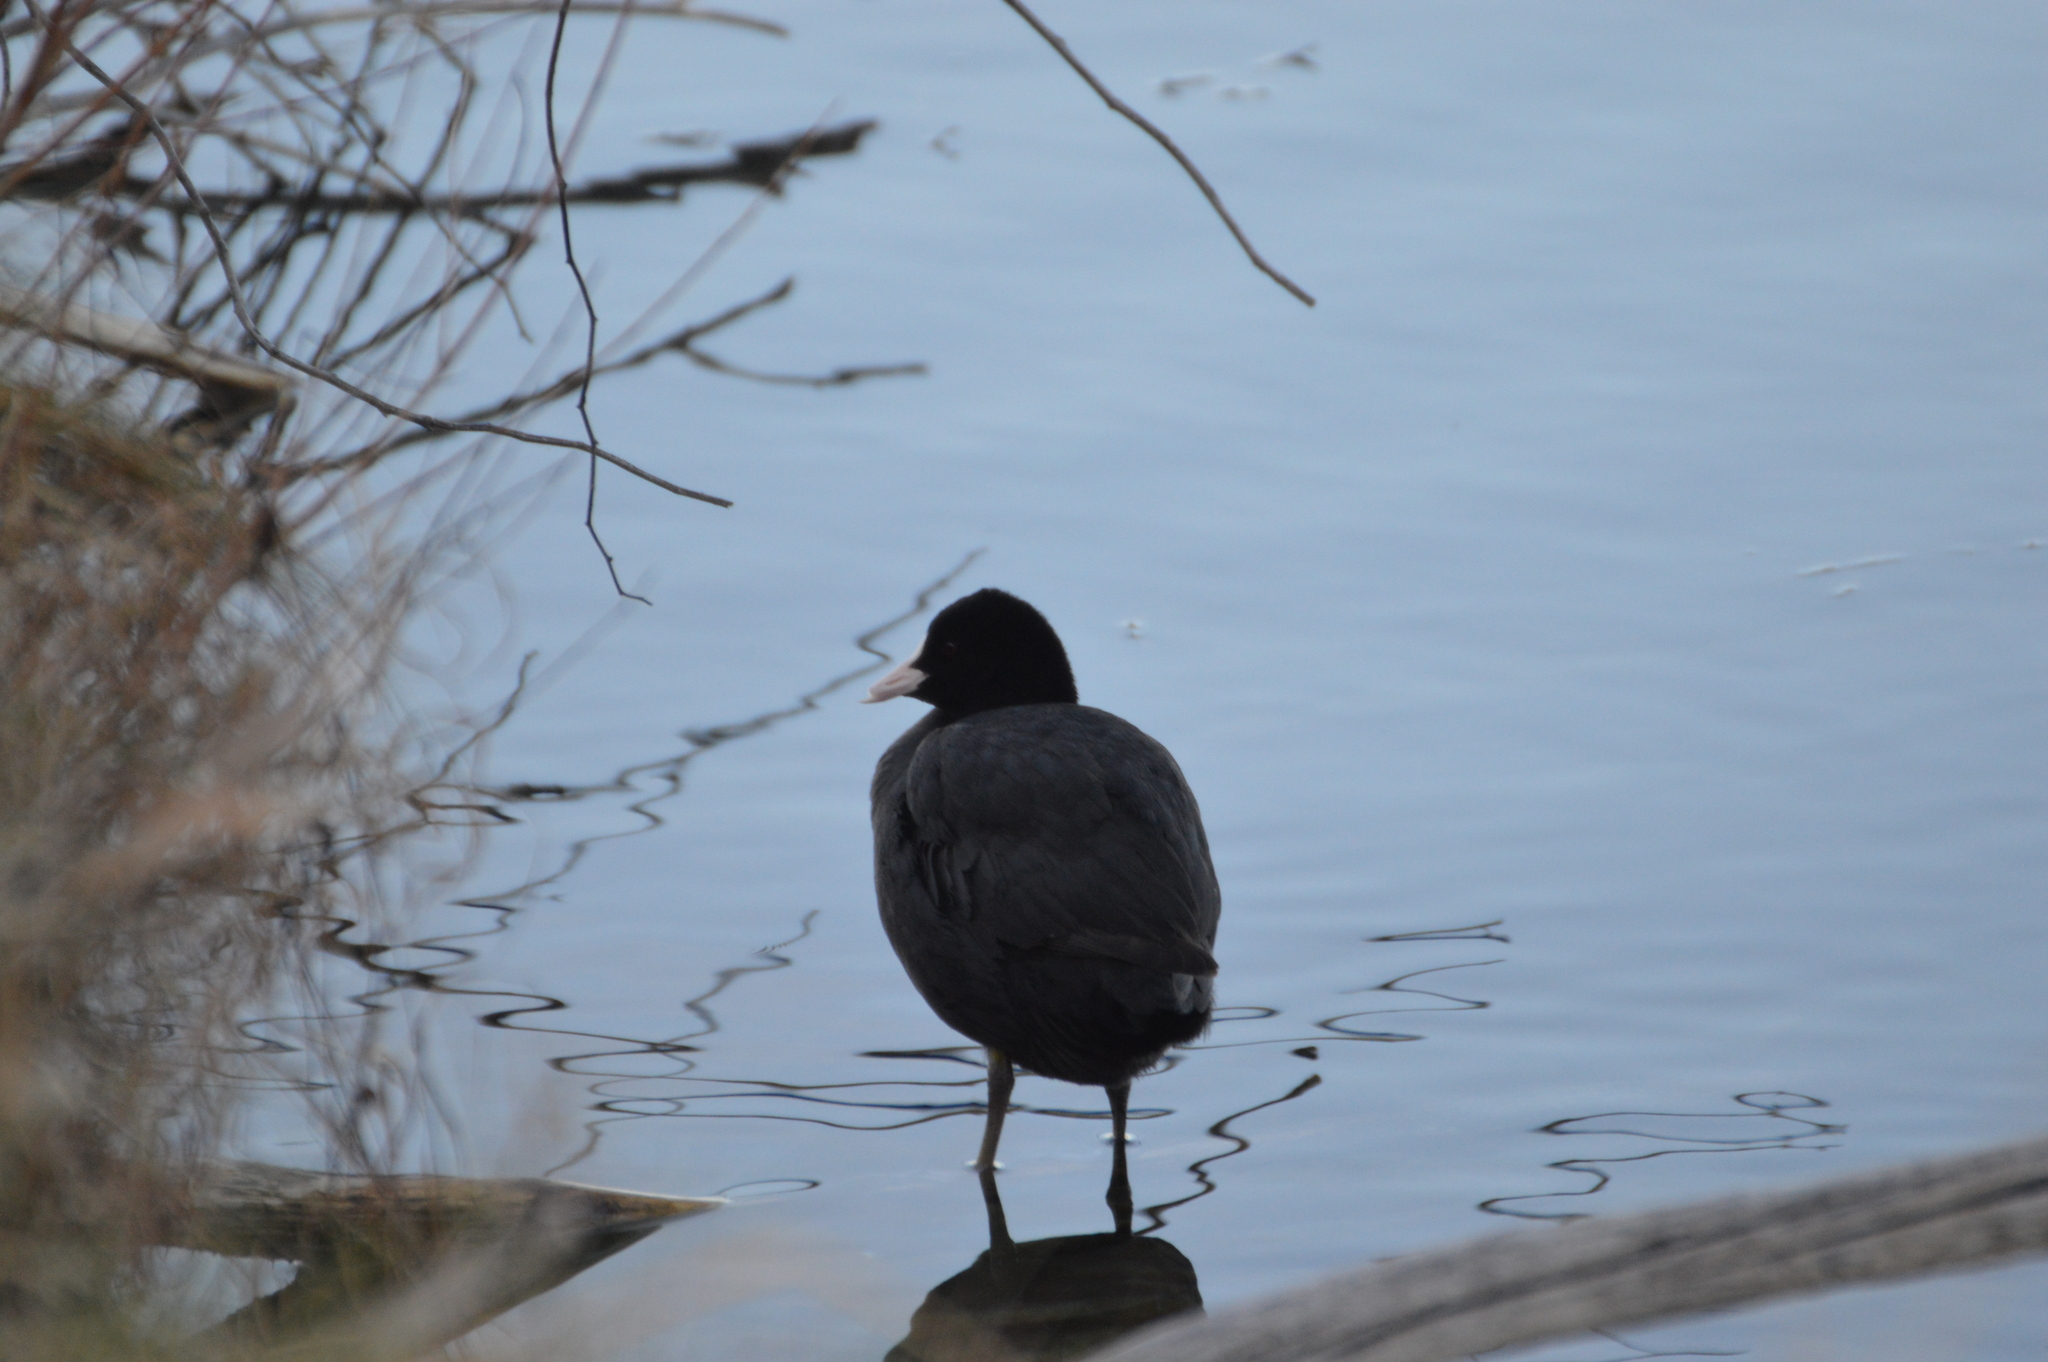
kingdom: Animalia
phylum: Chordata
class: Aves
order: Gruiformes
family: Rallidae
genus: Fulica
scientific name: Fulica atra
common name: Eurasian coot
